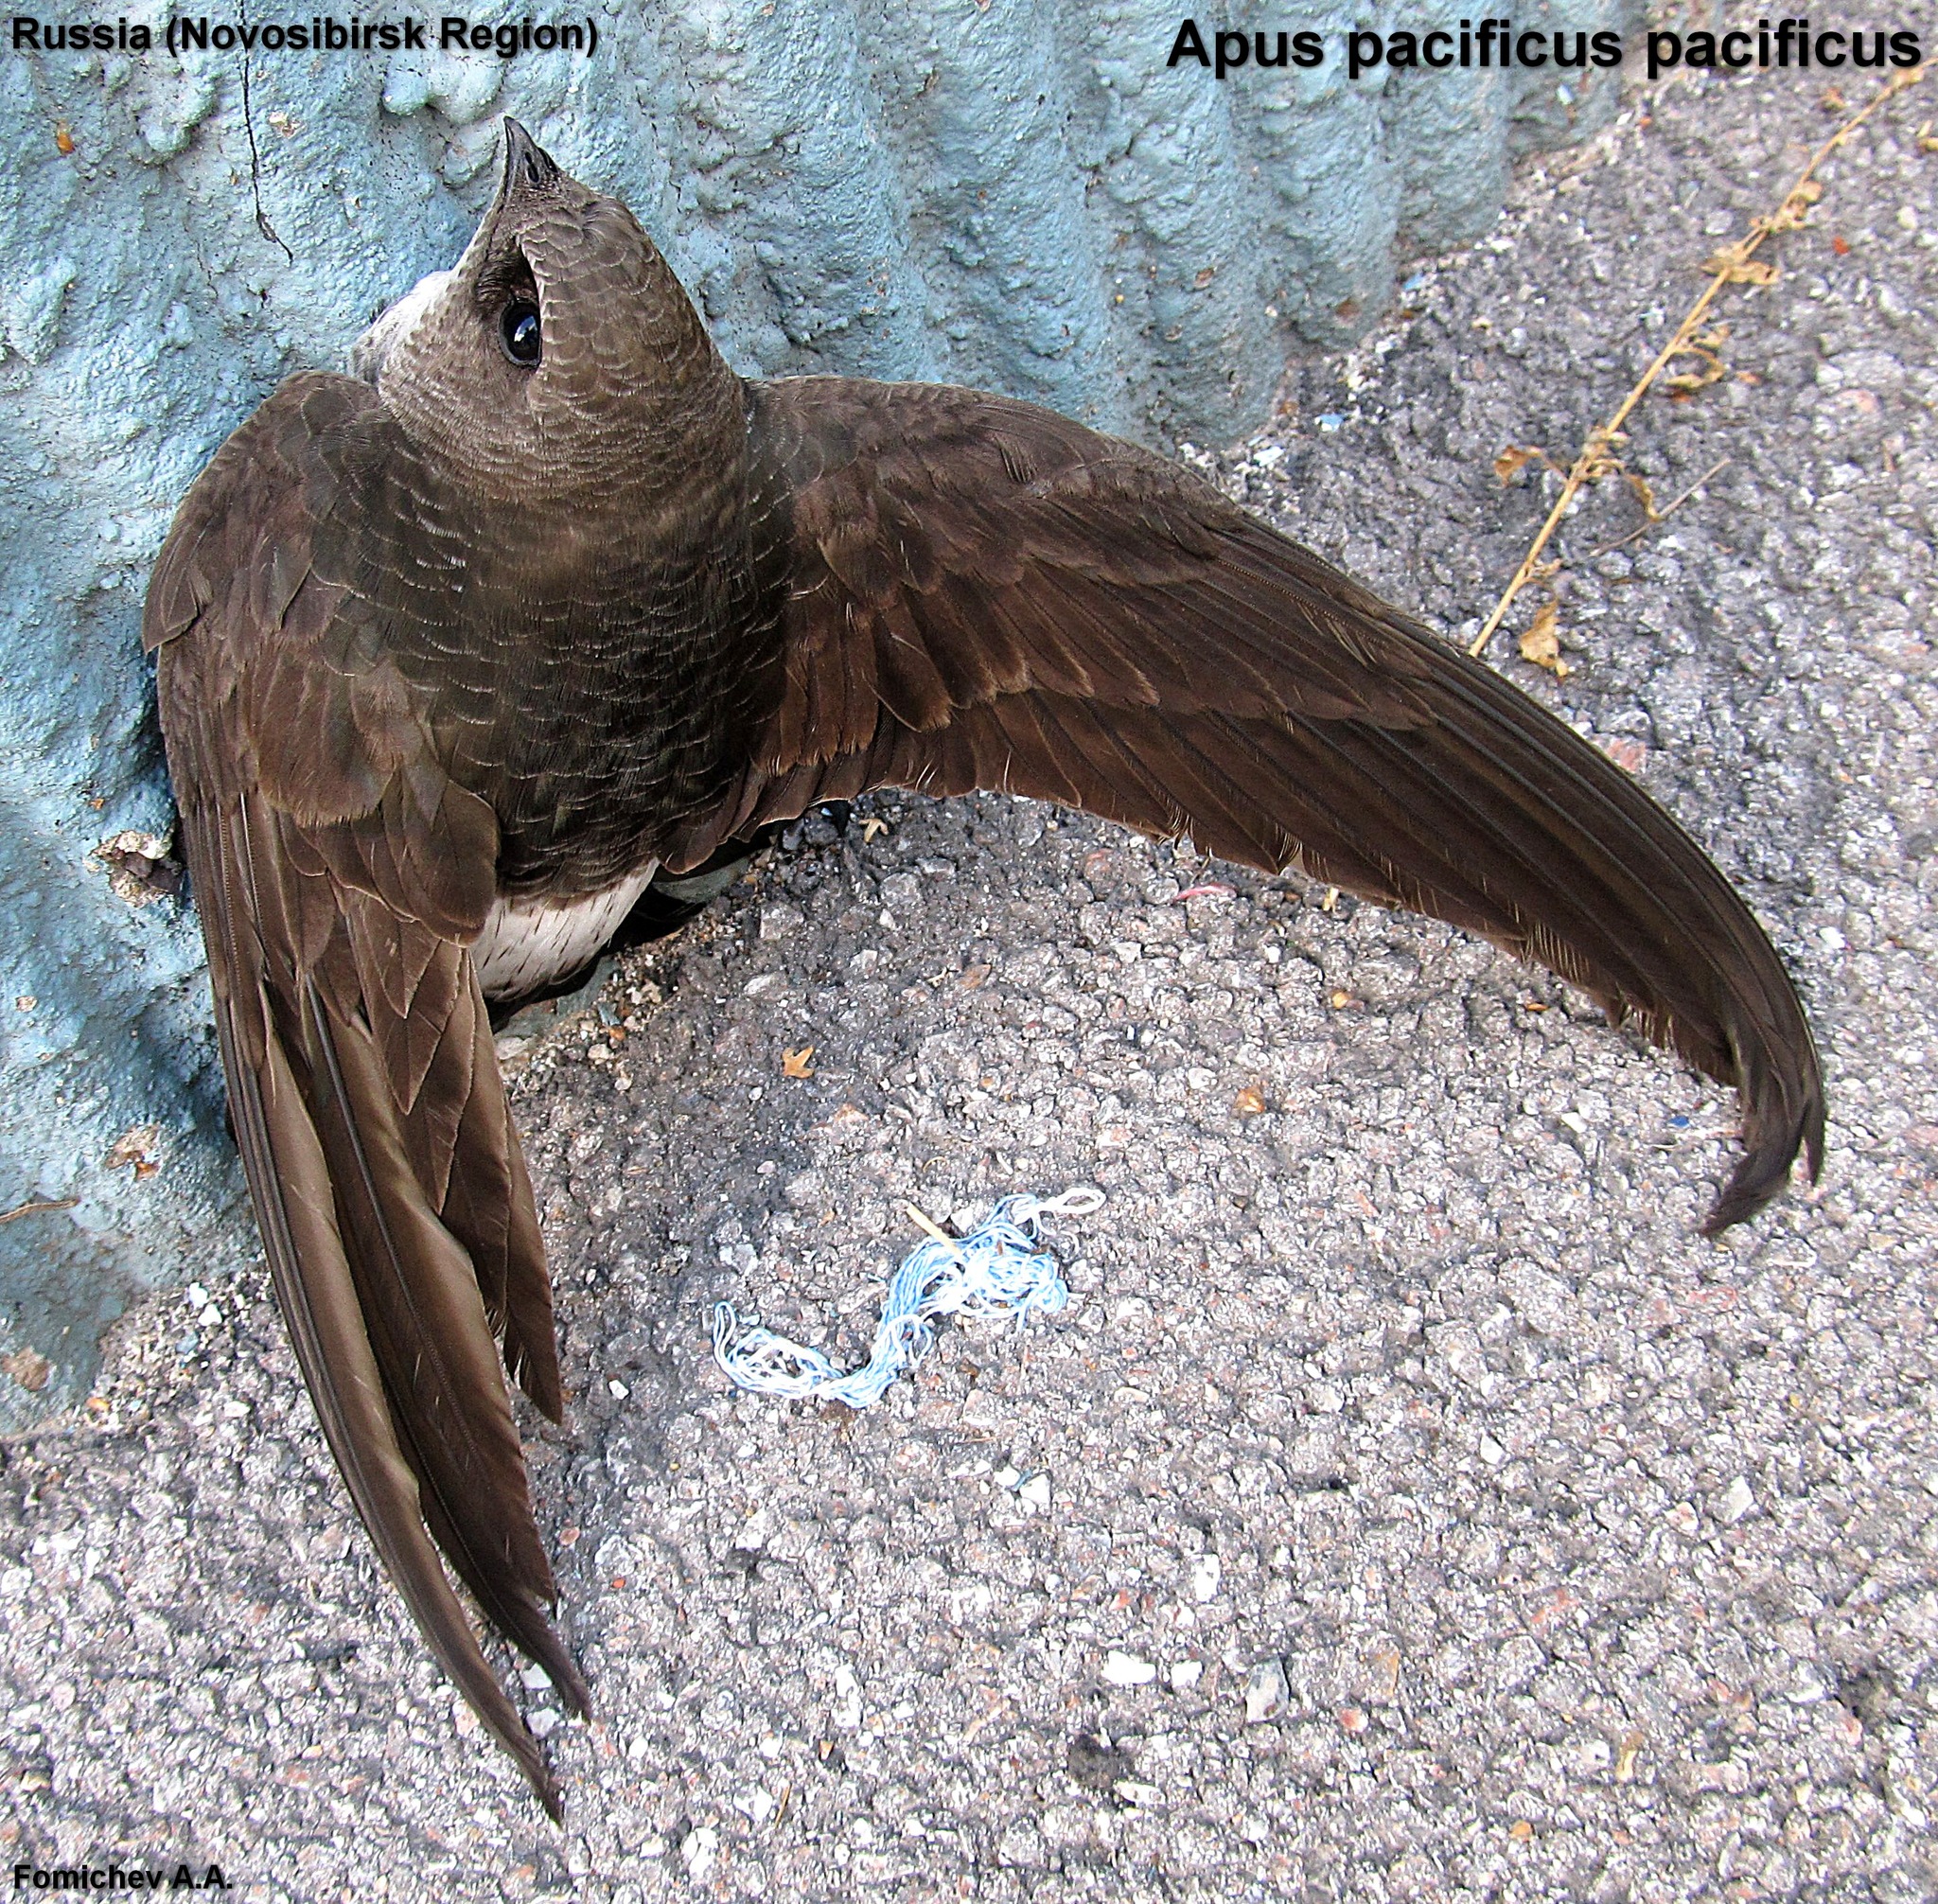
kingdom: Animalia
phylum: Chordata
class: Aves
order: Apodiformes
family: Apodidae
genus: Apus
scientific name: Apus pacificus
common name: Pacific swift
